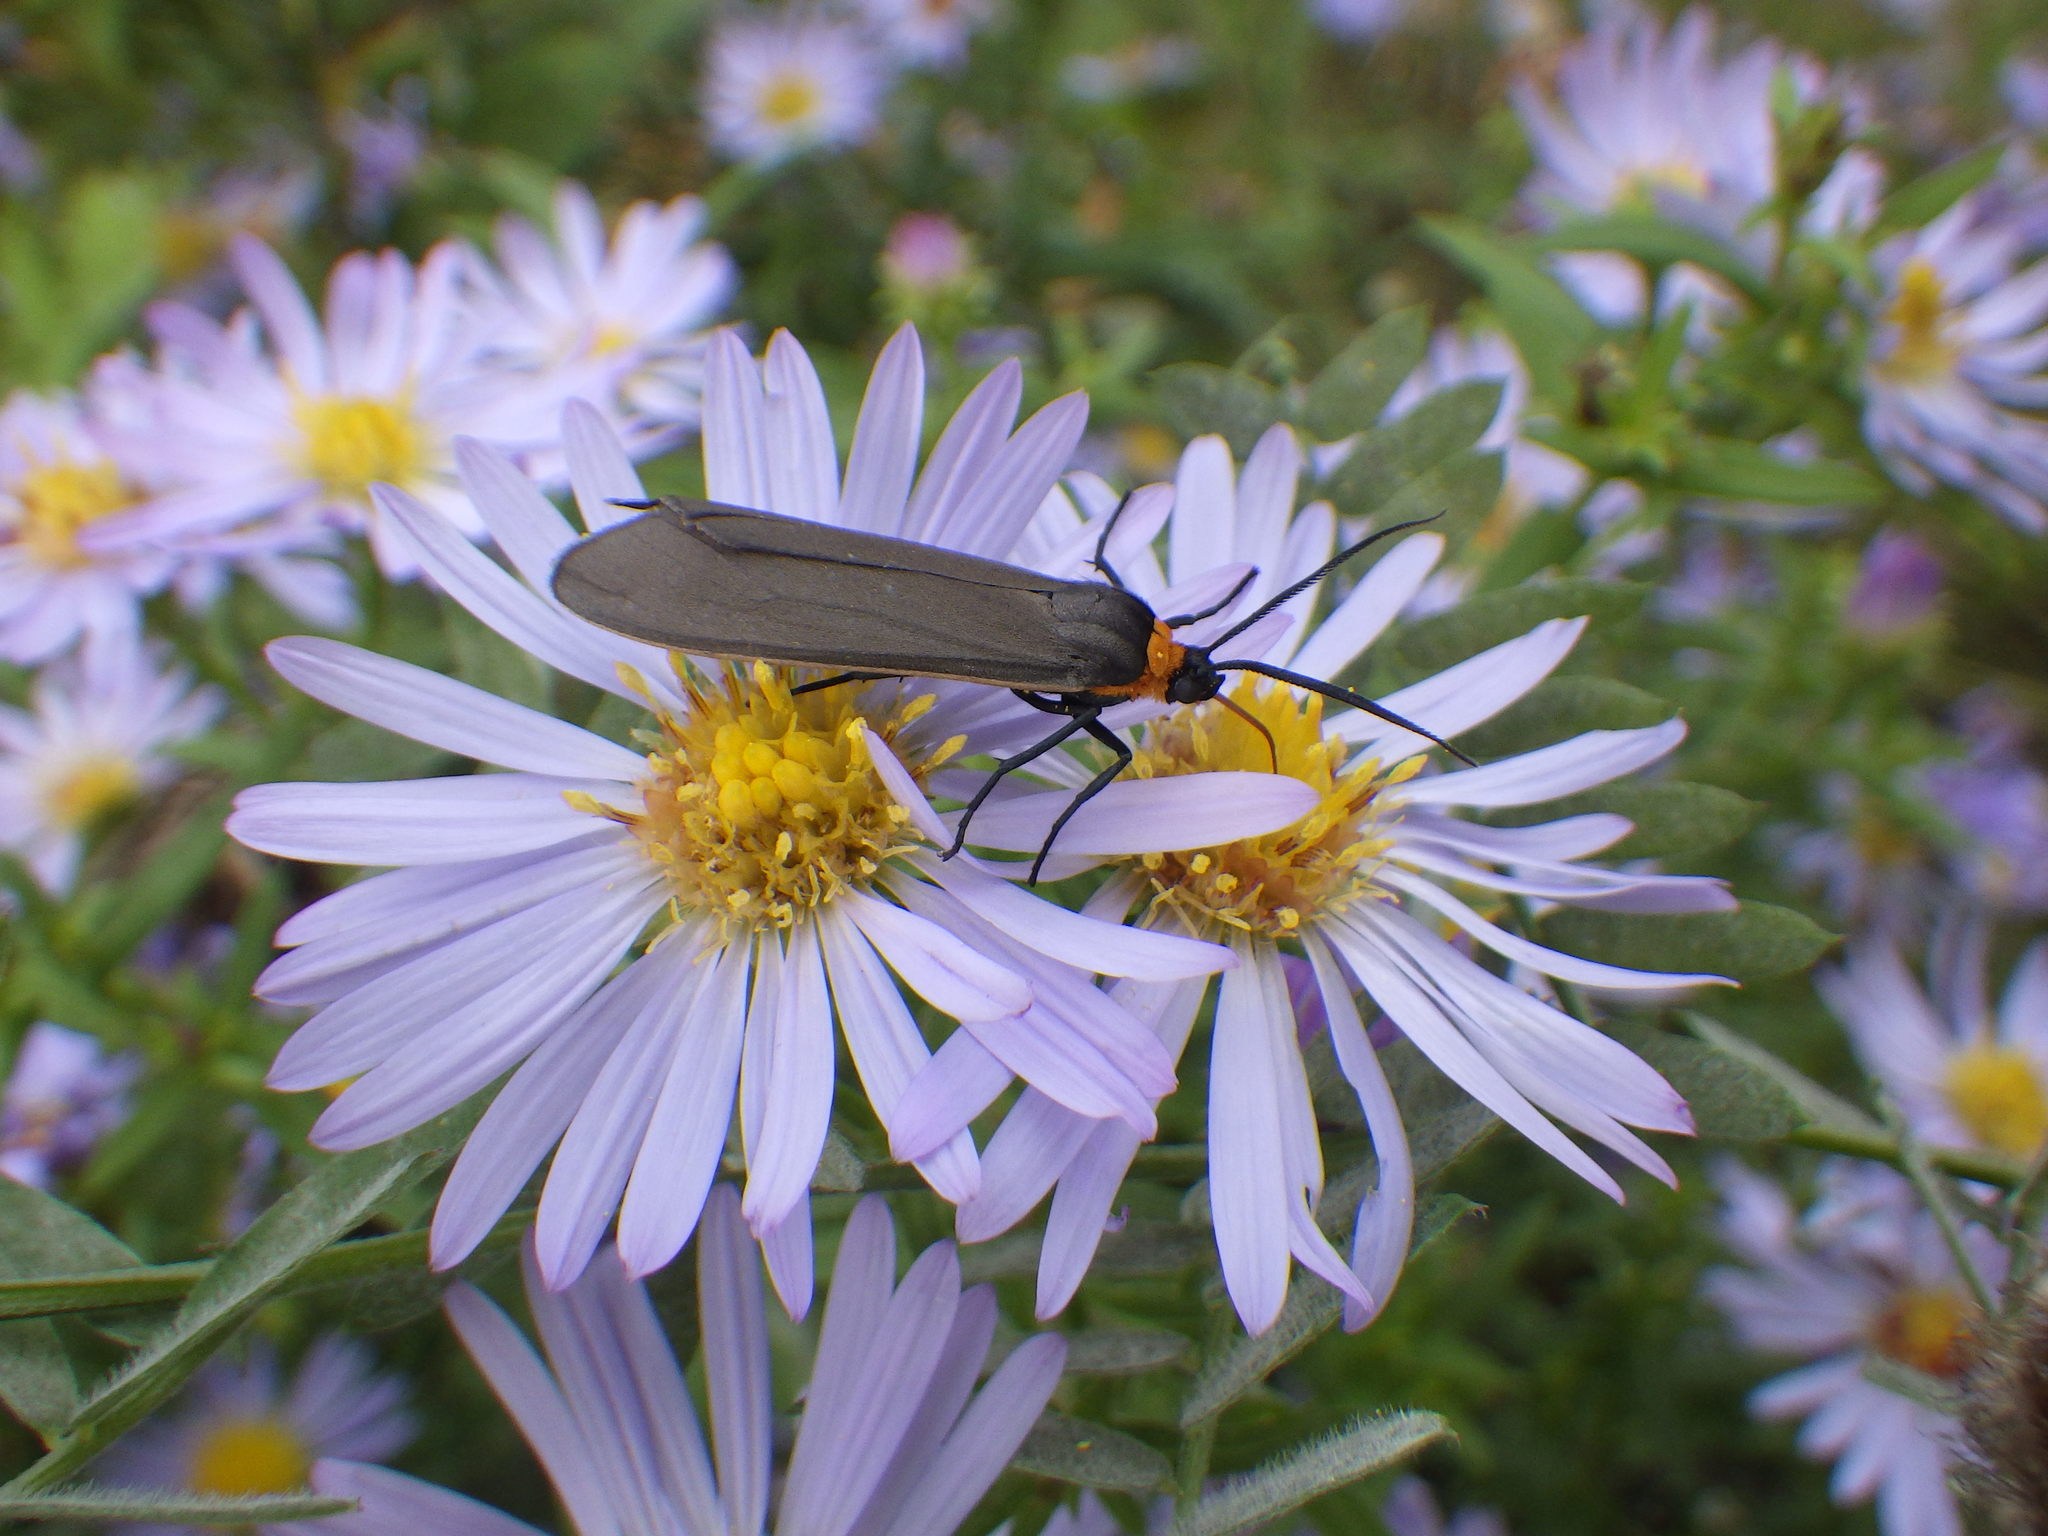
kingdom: Animalia
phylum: Arthropoda
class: Insecta
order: Lepidoptera
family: Erebidae
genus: Cisseps
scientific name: Cisseps fulvicollis
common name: Yellow-collared scape moth
